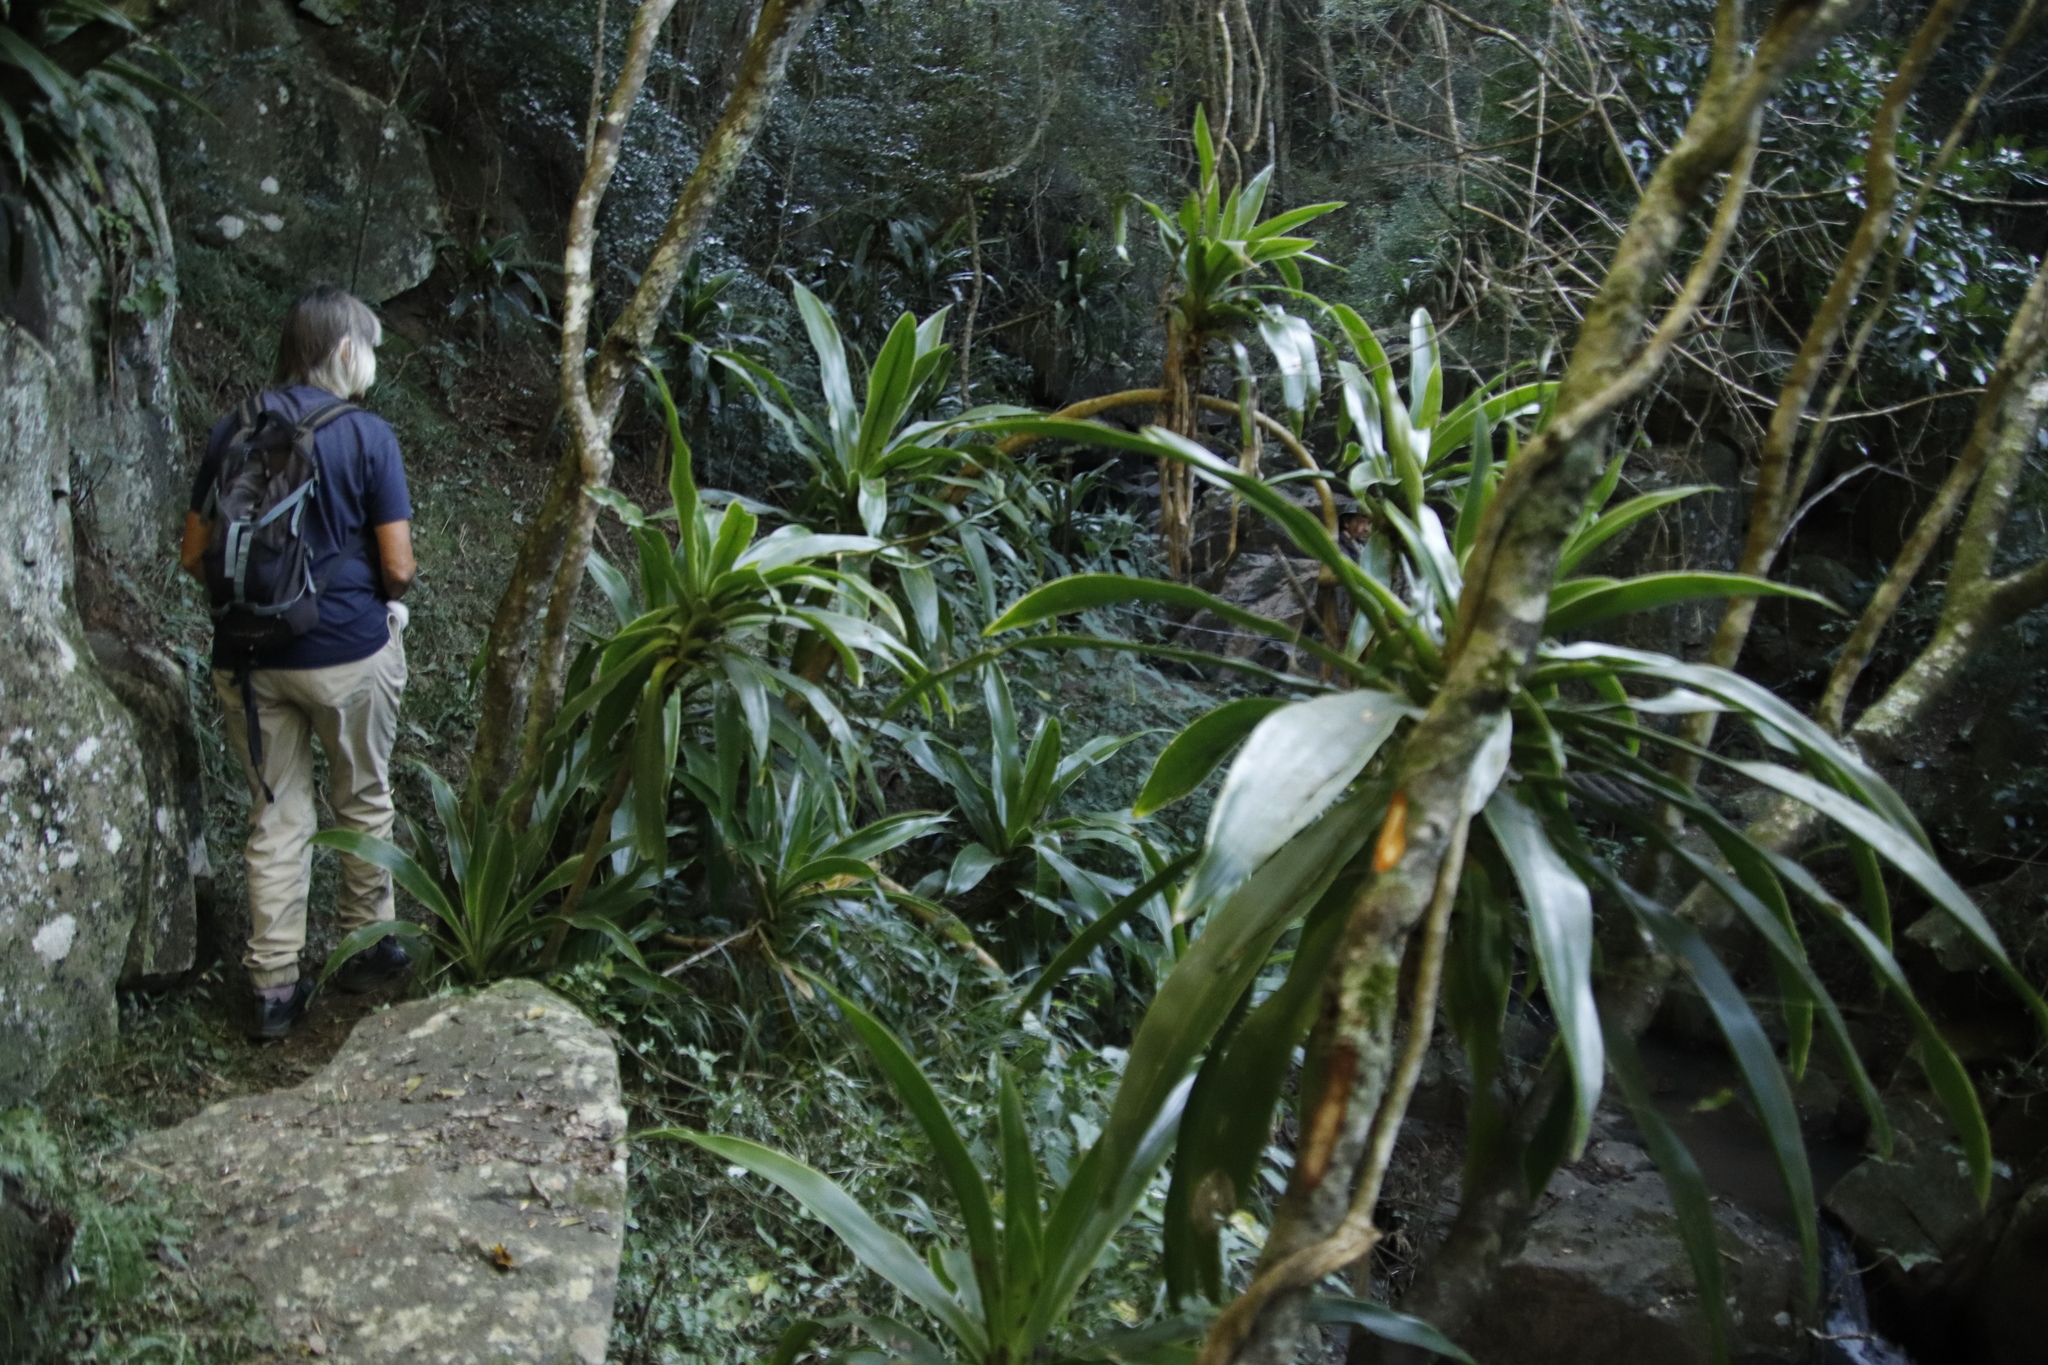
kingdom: Plantae
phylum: Tracheophyta
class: Liliopsida
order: Asparagales
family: Asparagaceae
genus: Dracaena
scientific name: Dracaena aletriformis
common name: Large-leaved dragon tree
